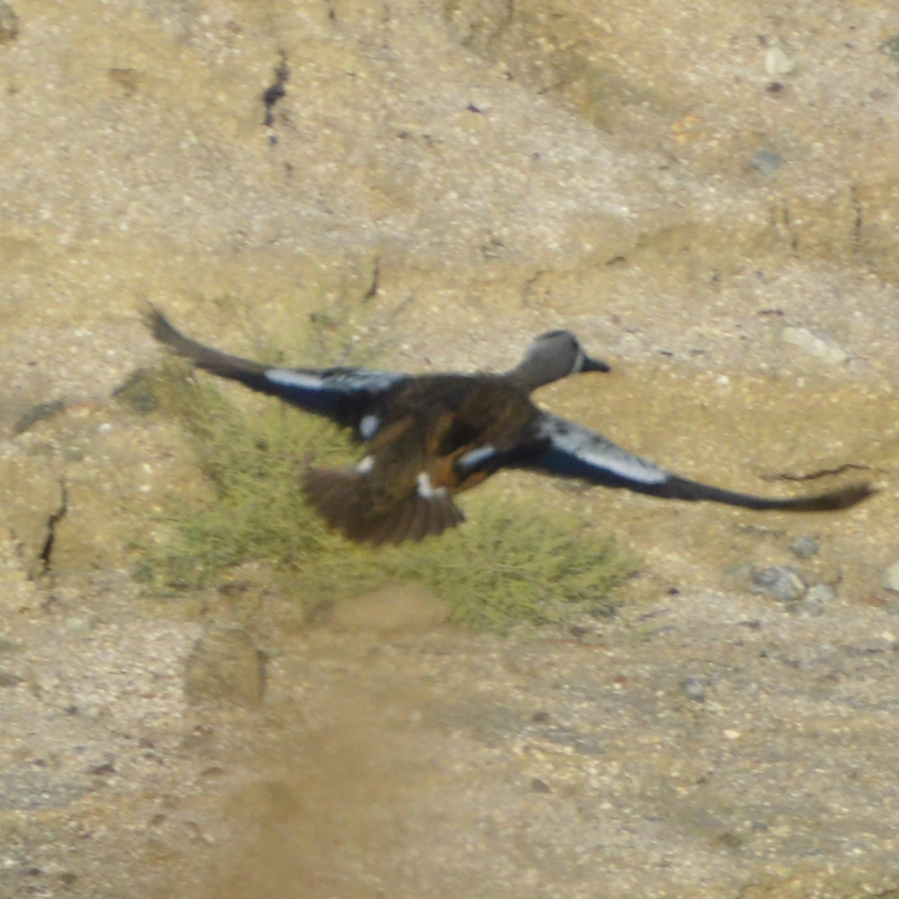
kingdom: Animalia
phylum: Chordata
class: Aves
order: Anseriformes
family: Anatidae
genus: Spatula
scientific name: Spatula discors
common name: Blue-winged teal
